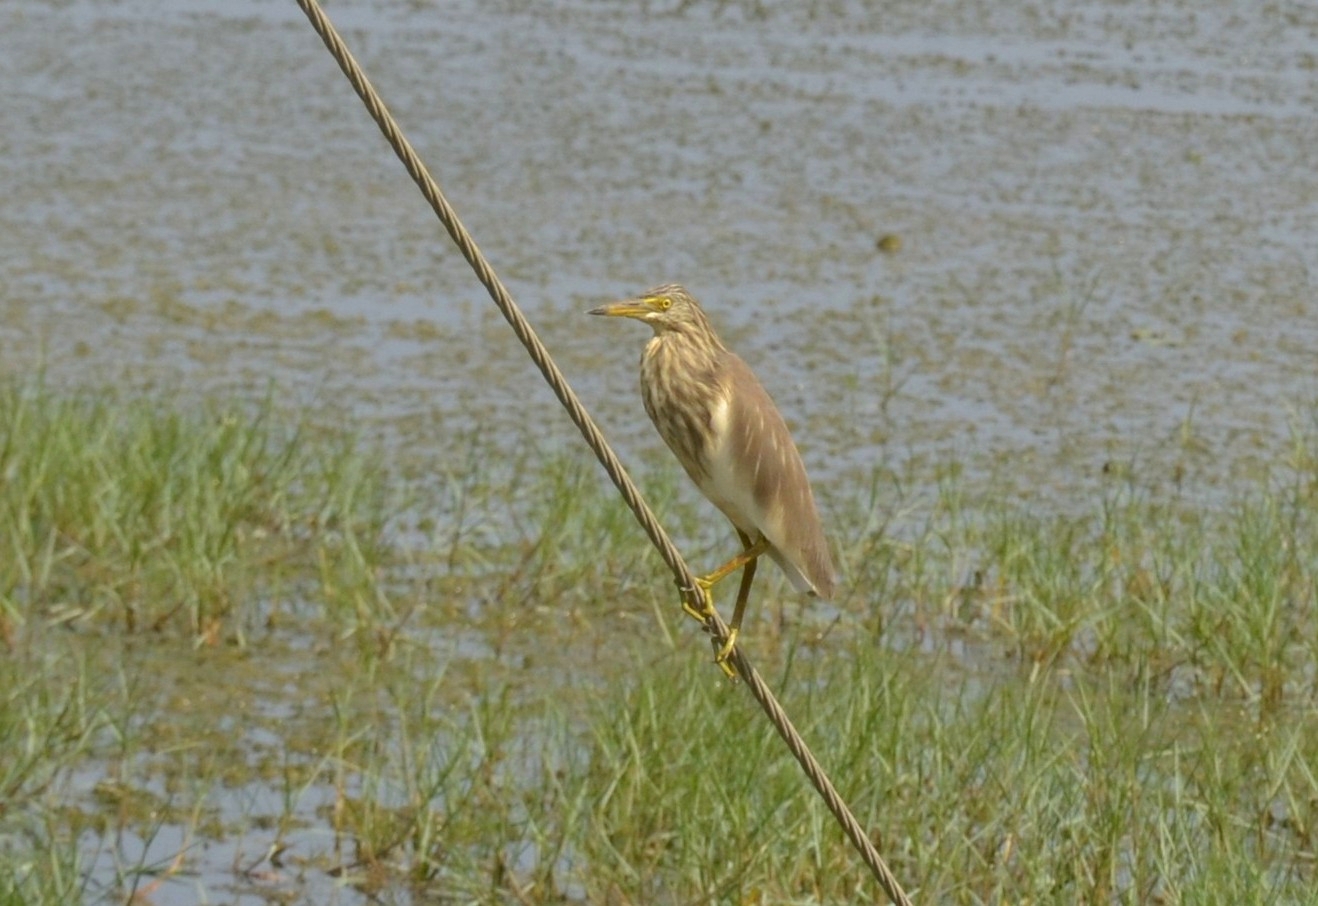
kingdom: Animalia
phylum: Chordata
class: Aves
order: Pelecaniformes
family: Ardeidae
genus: Ardeola
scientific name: Ardeola grayii
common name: Indian pond heron
